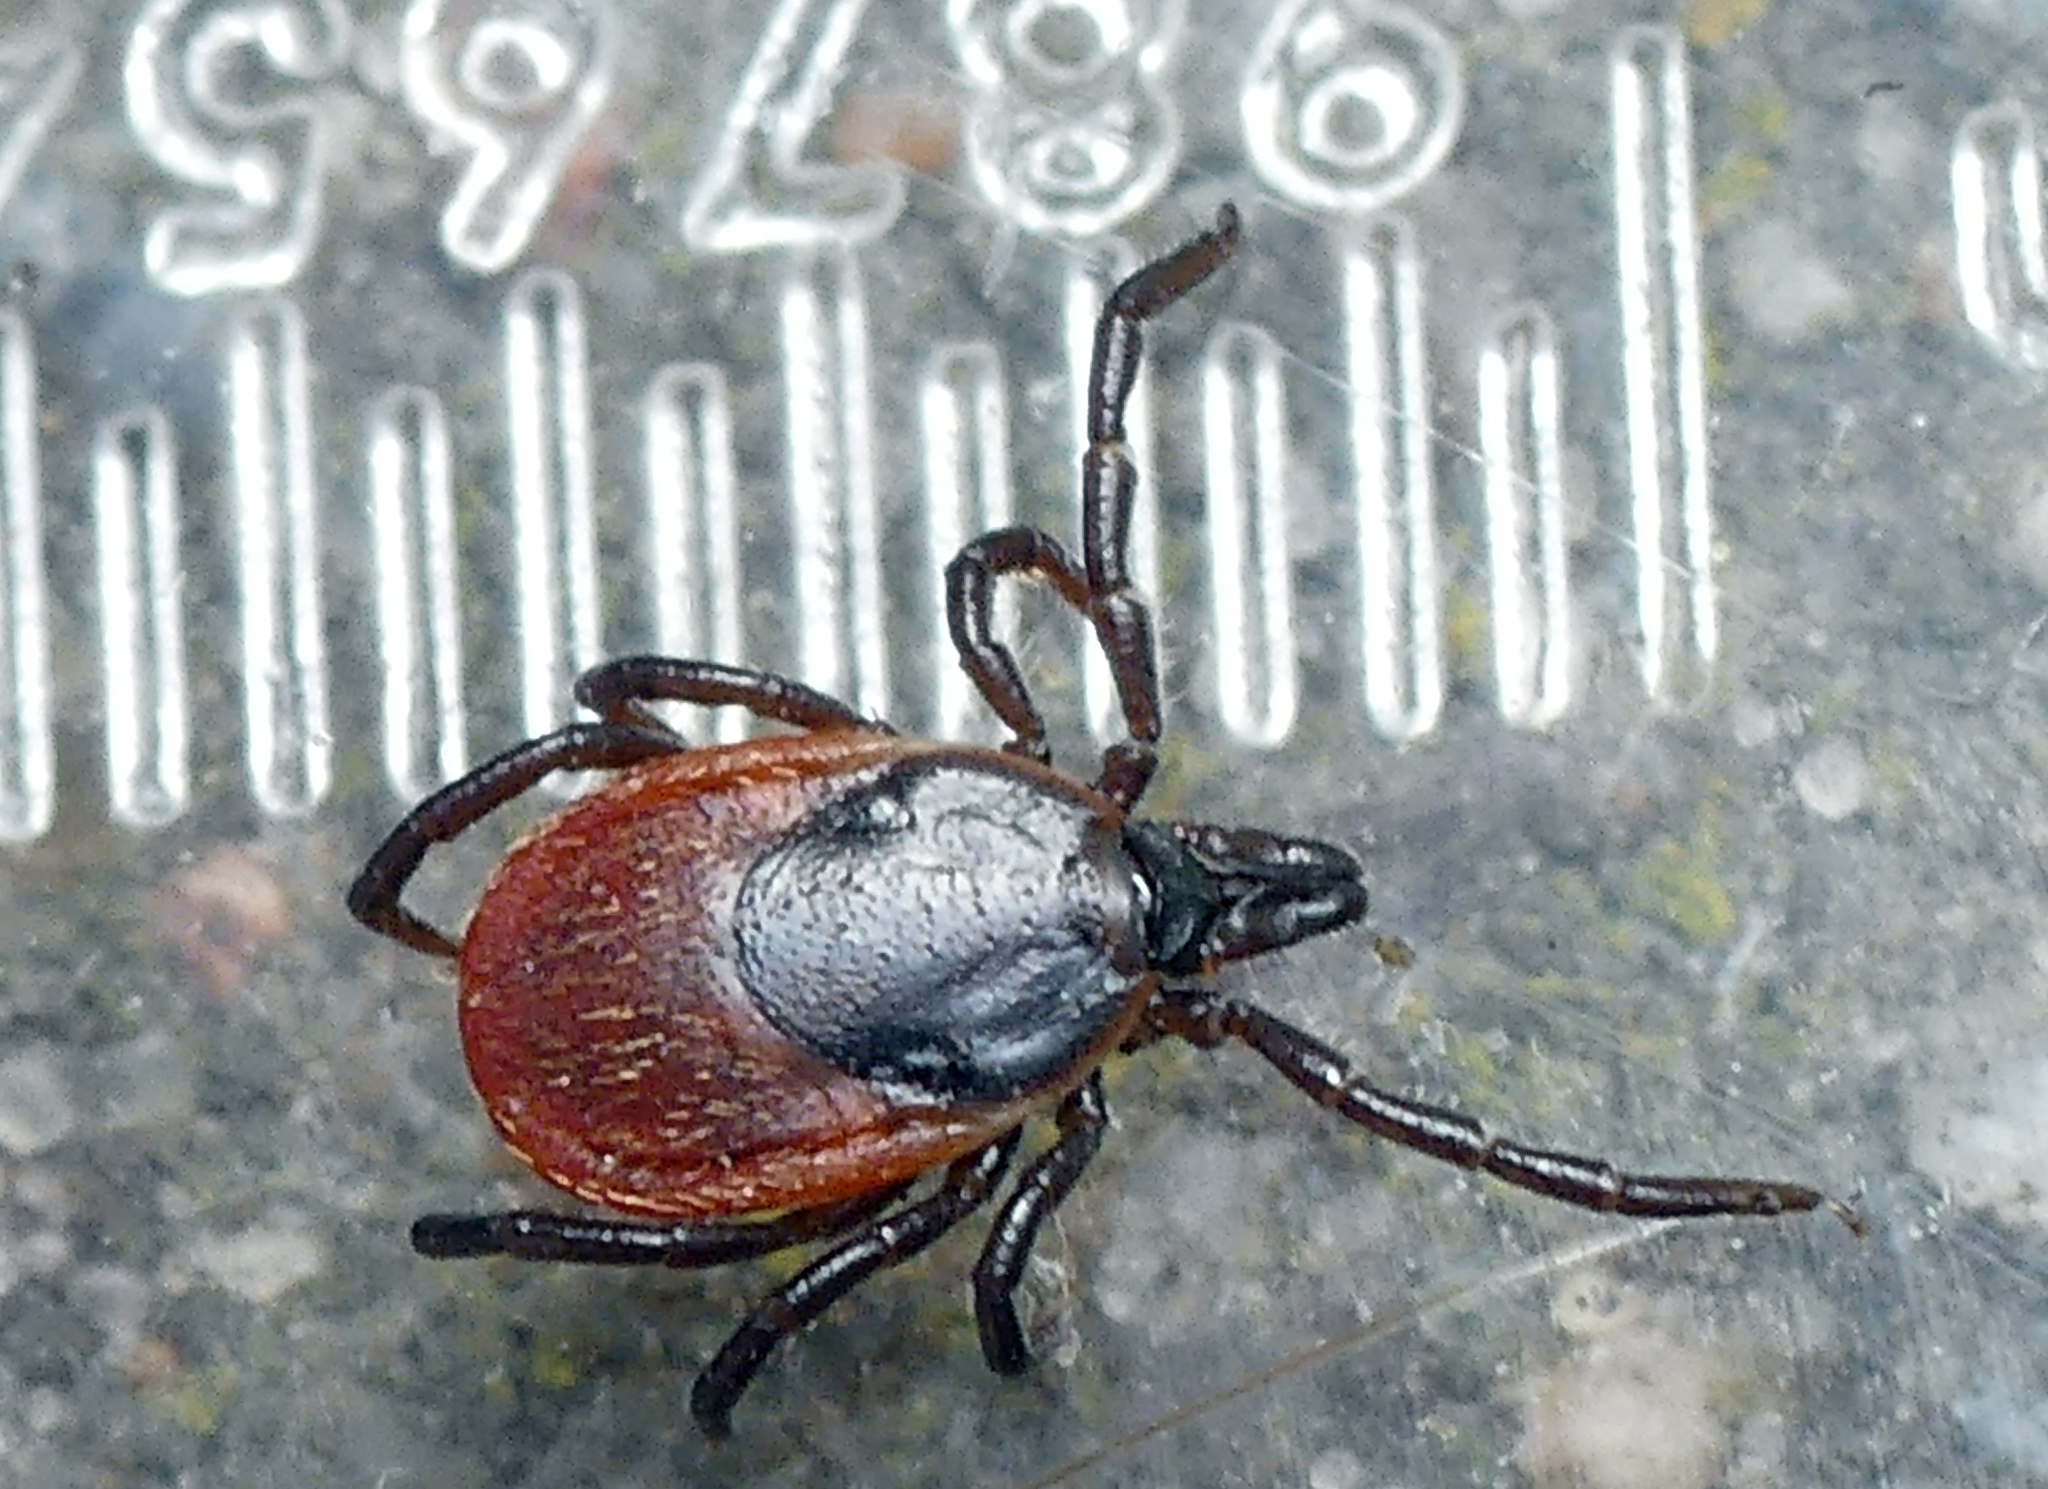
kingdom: Animalia
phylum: Arthropoda
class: Arachnida
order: Ixodida
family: Ixodidae
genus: Ixodes
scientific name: Ixodes ricinus
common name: Castor bean tick
